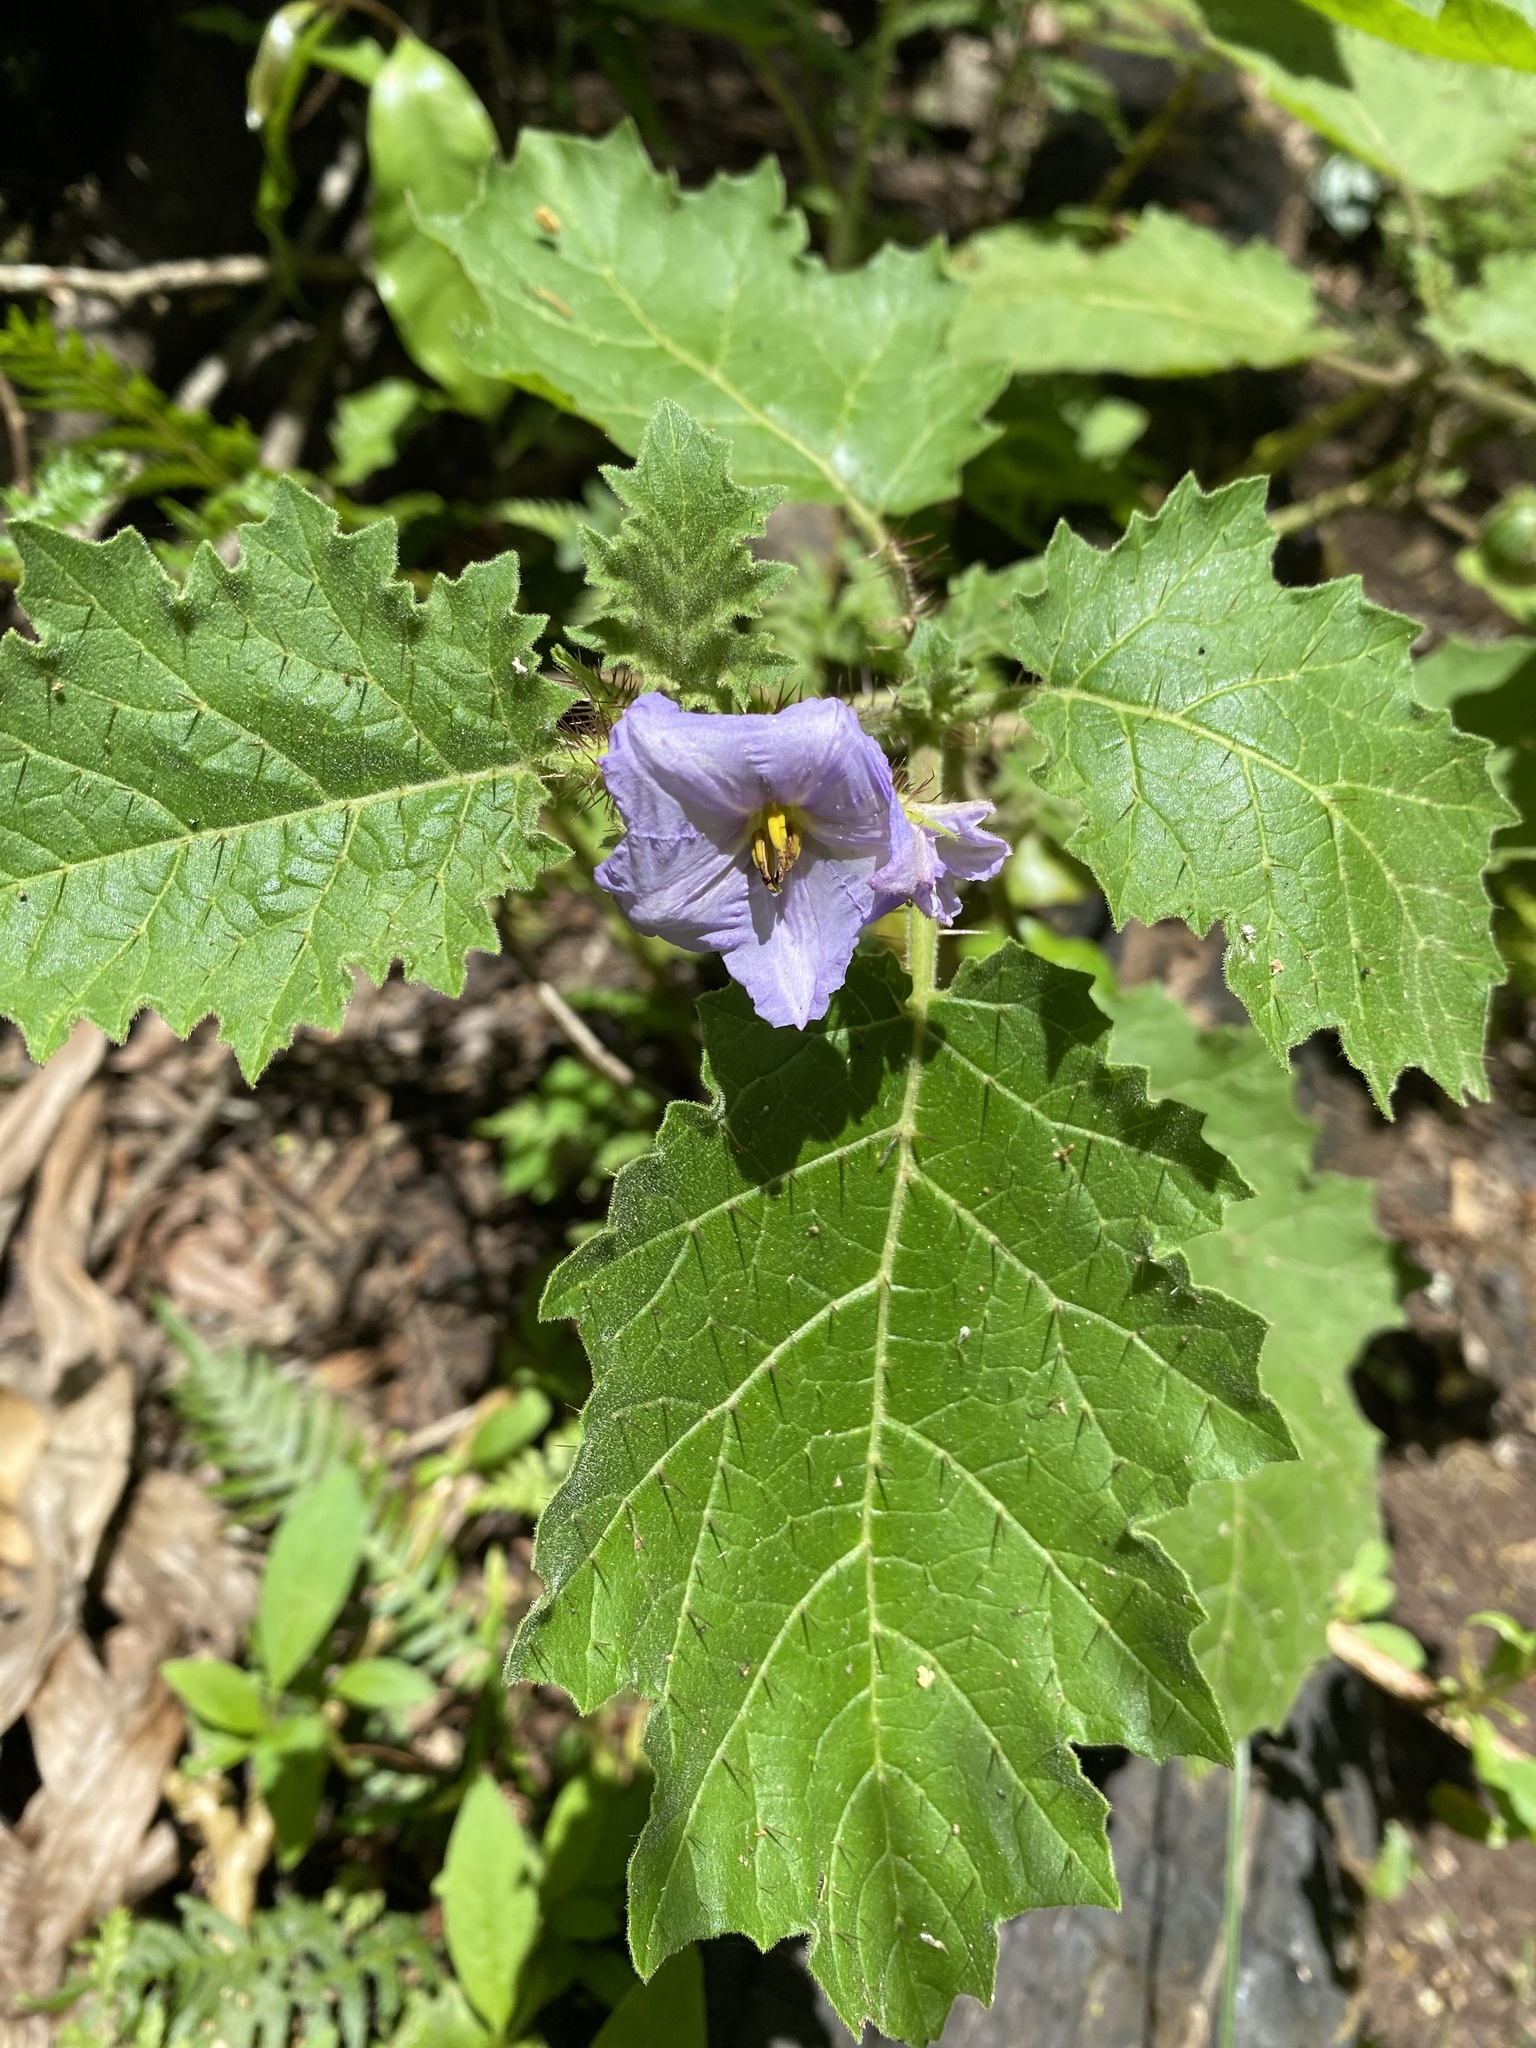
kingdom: Plantae
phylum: Tracheophyta
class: Magnoliopsida
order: Solanales
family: Solanaceae
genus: Solanum
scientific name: Solanum ditrichum
